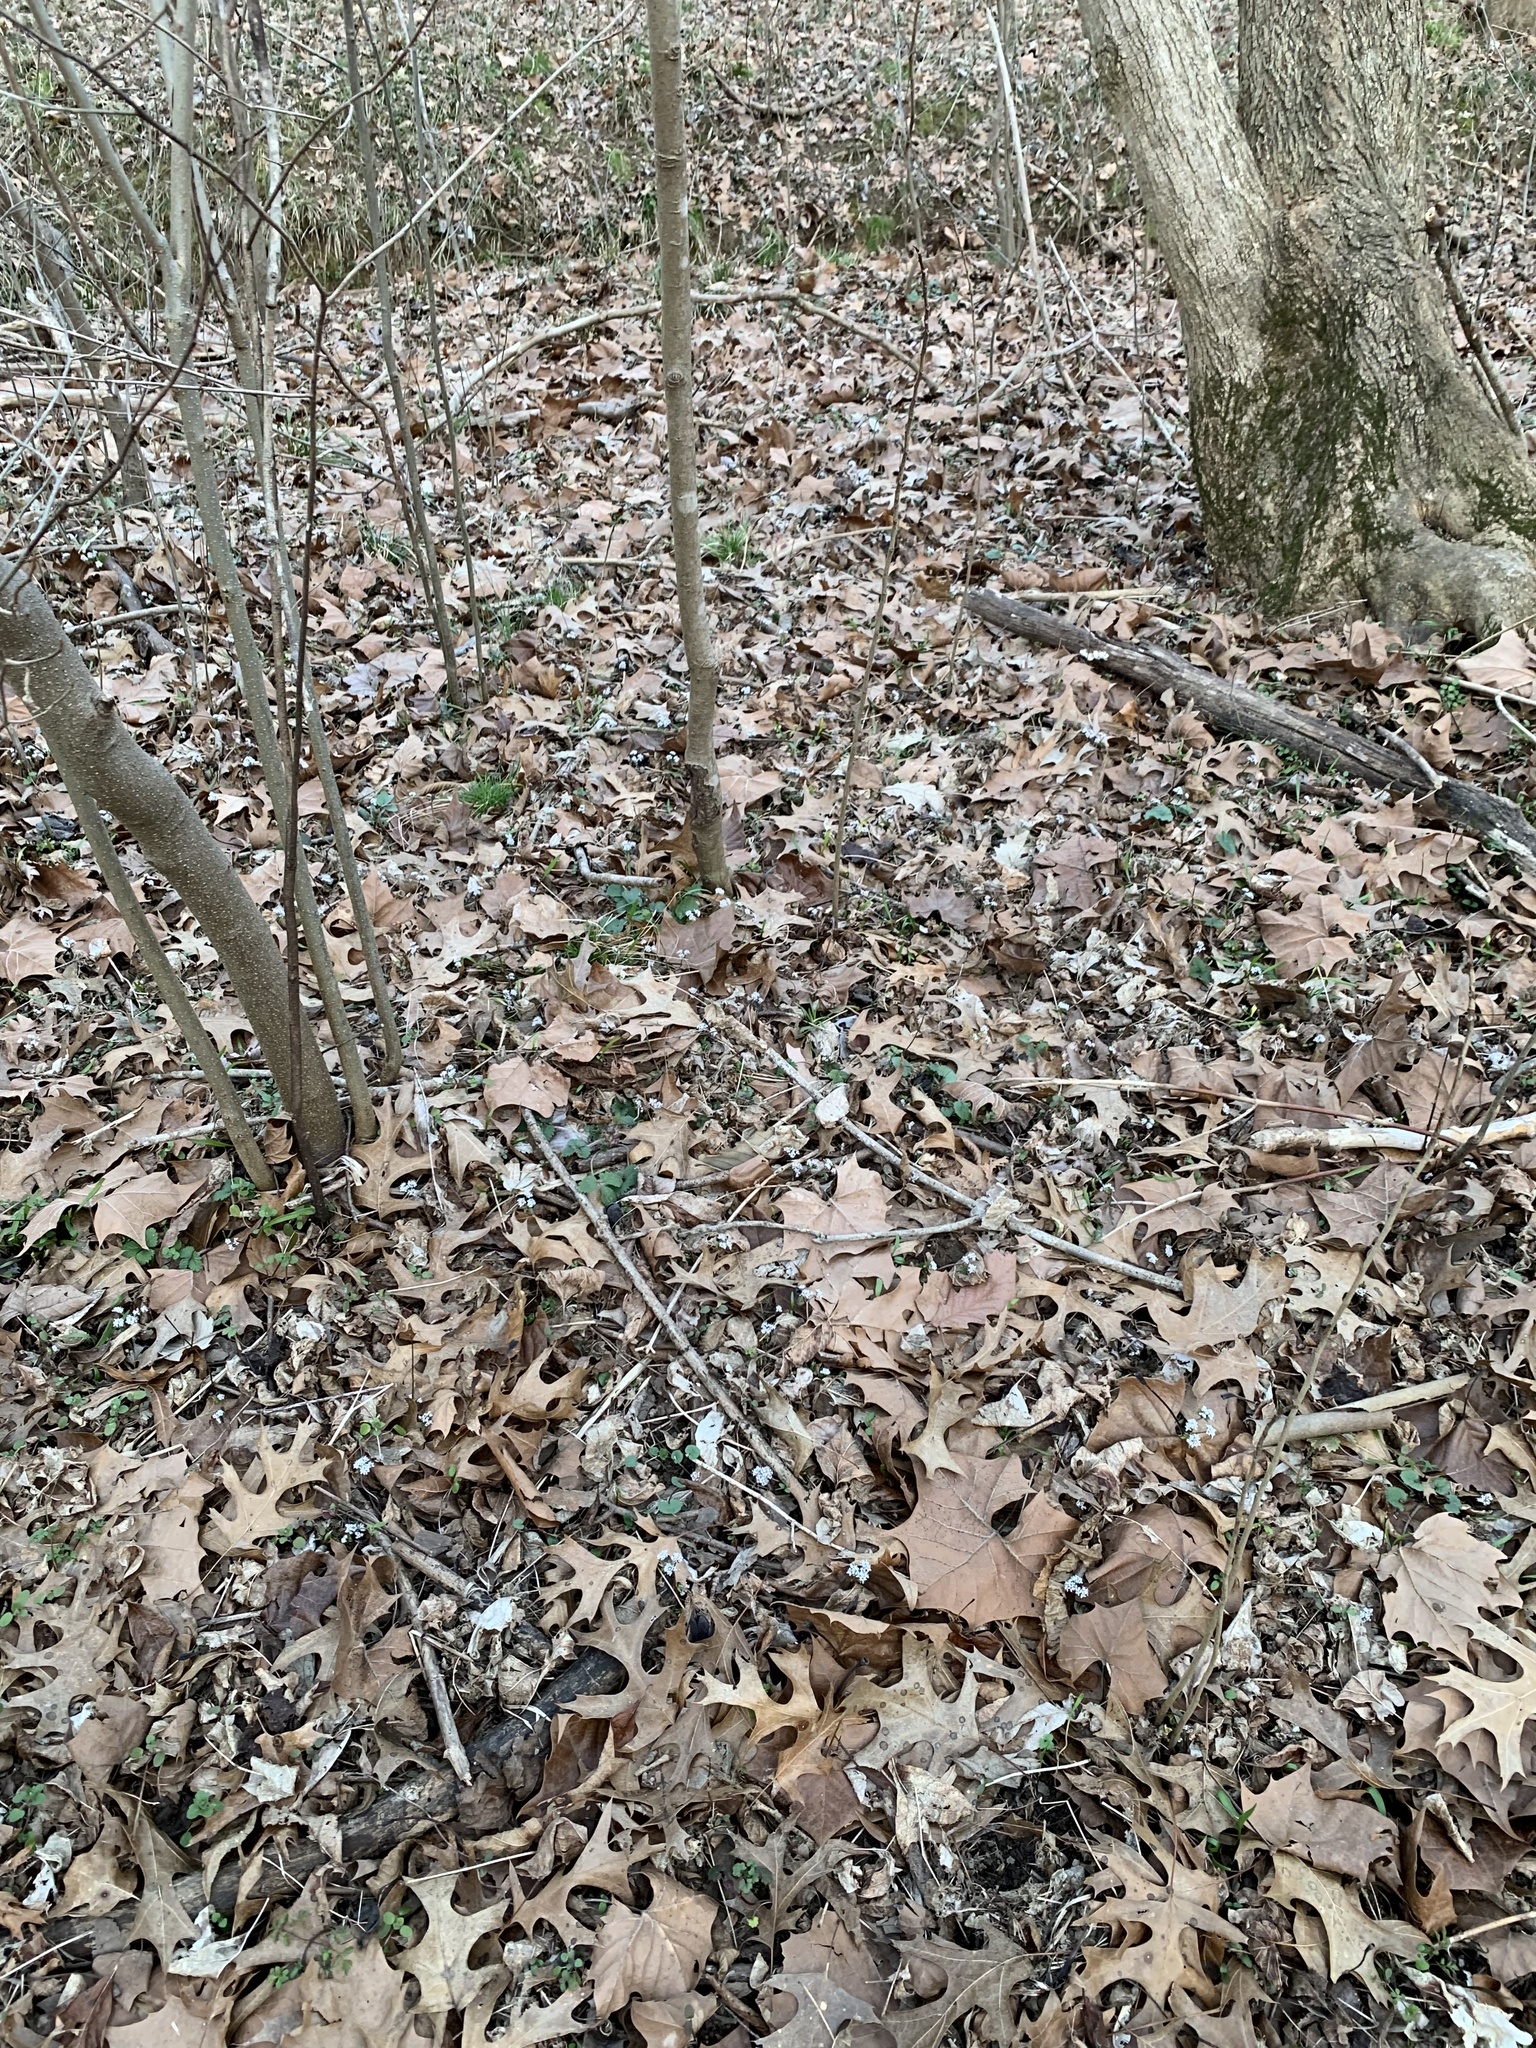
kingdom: Plantae
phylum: Tracheophyta
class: Magnoliopsida
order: Apiales
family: Apiaceae
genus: Erigenia
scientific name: Erigenia bulbosa
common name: Pepper-and-salt
